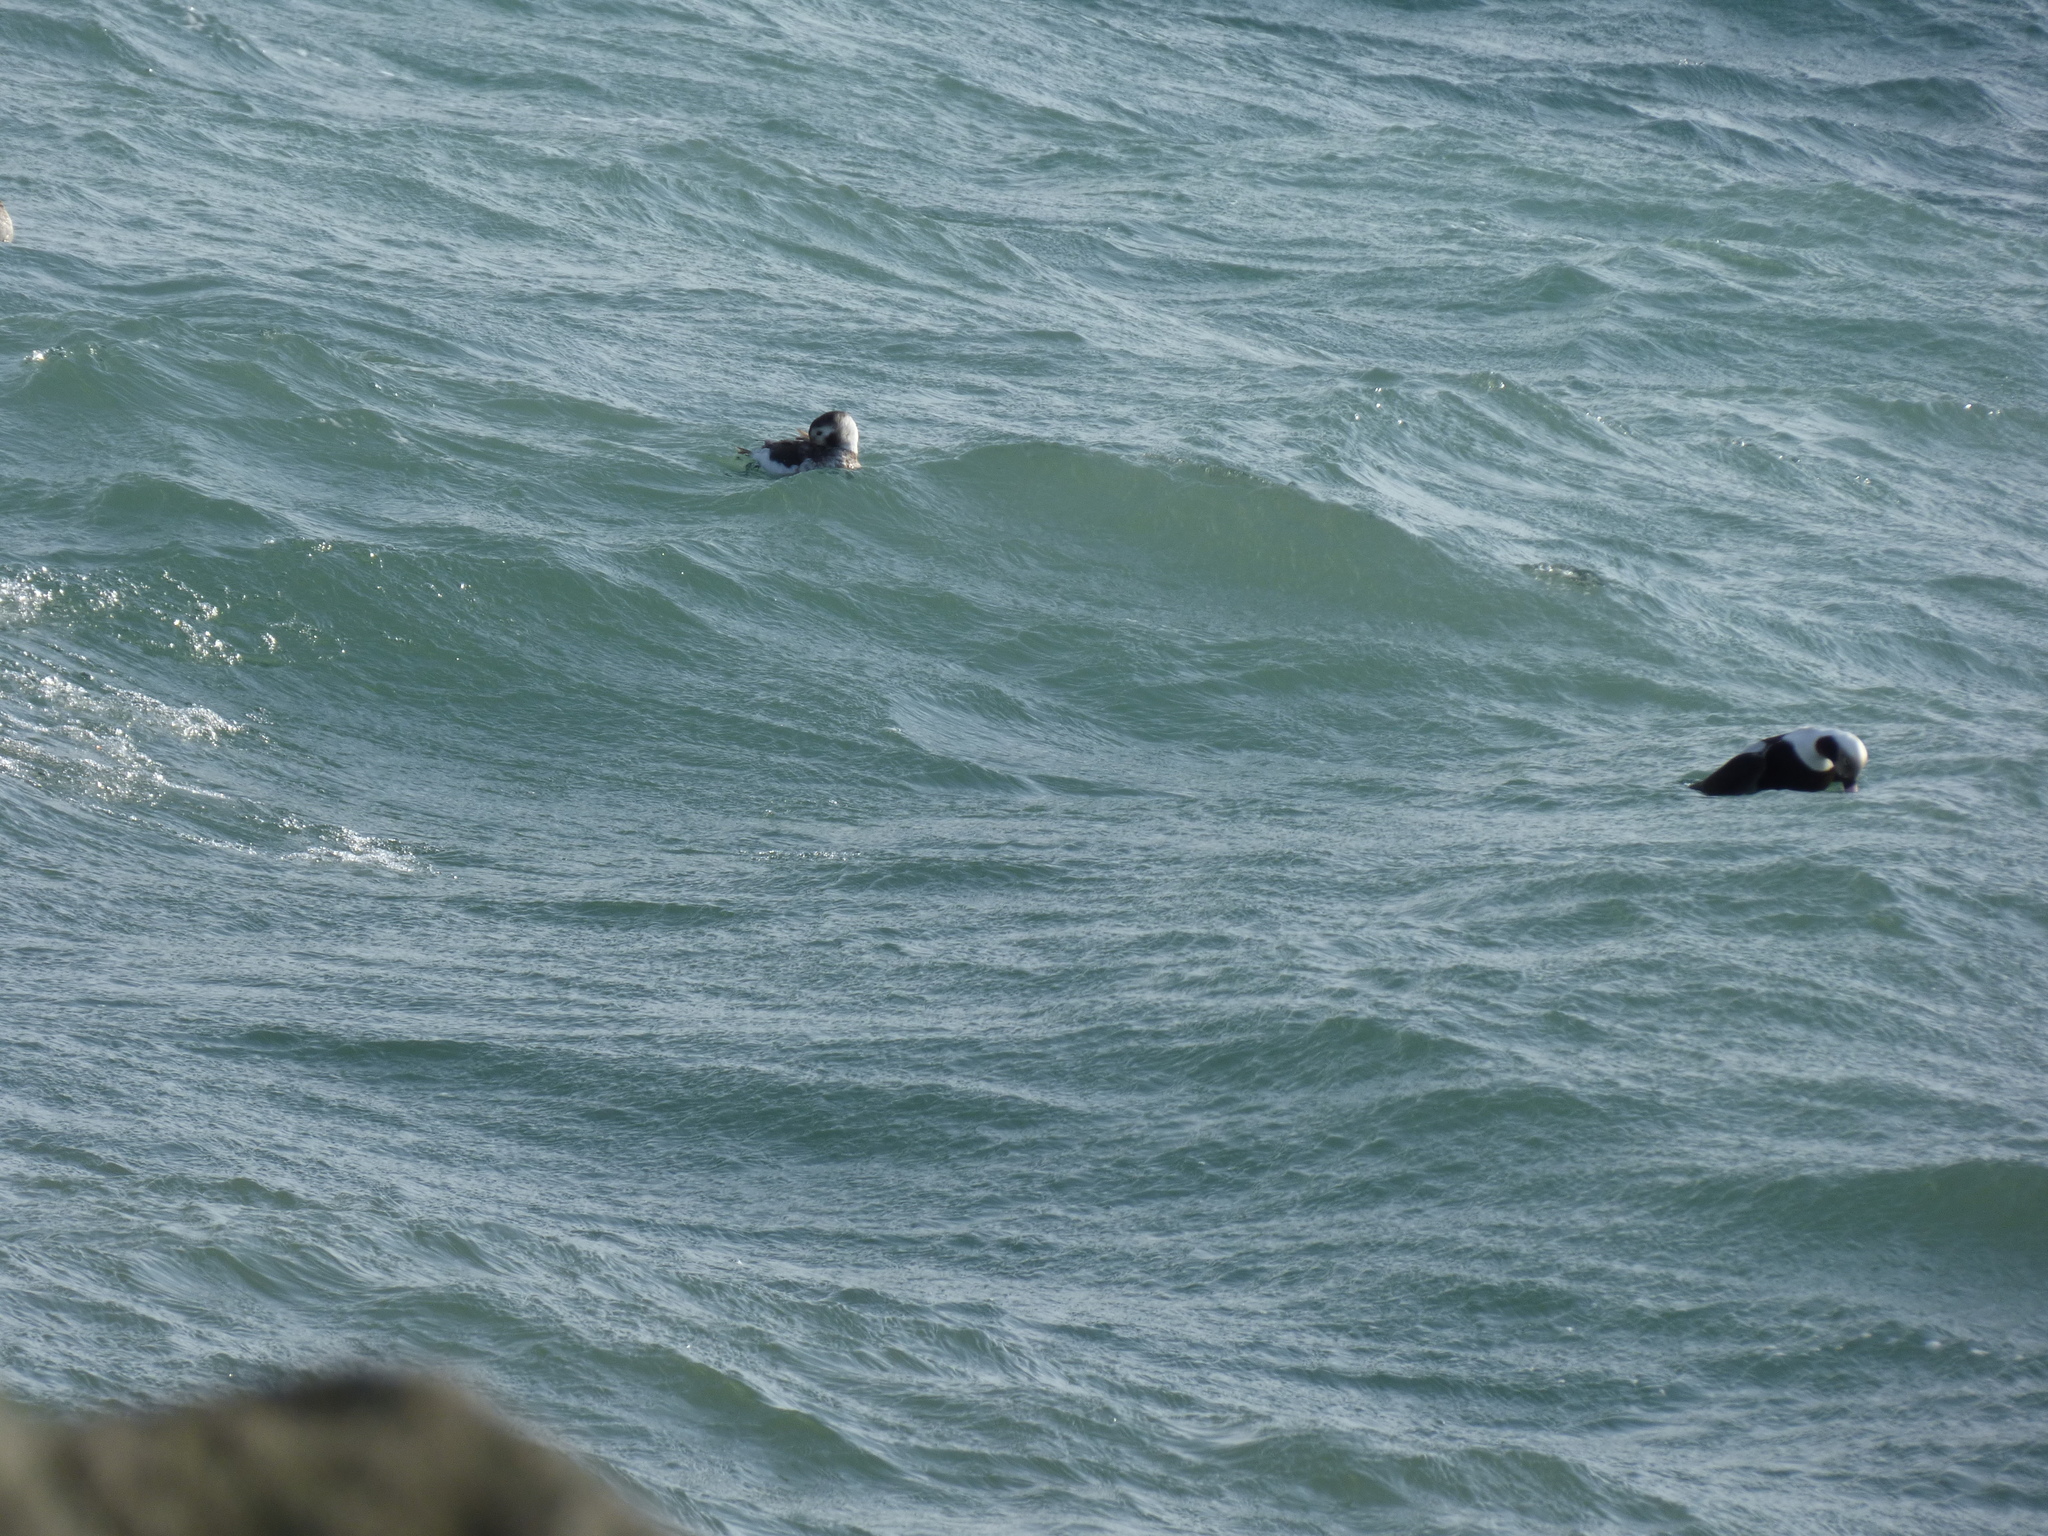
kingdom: Animalia
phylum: Chordata
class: Aves
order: Anseriformes
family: Anatidae
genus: Clangula
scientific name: Clangula hyemalis
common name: Long-tailed duck
